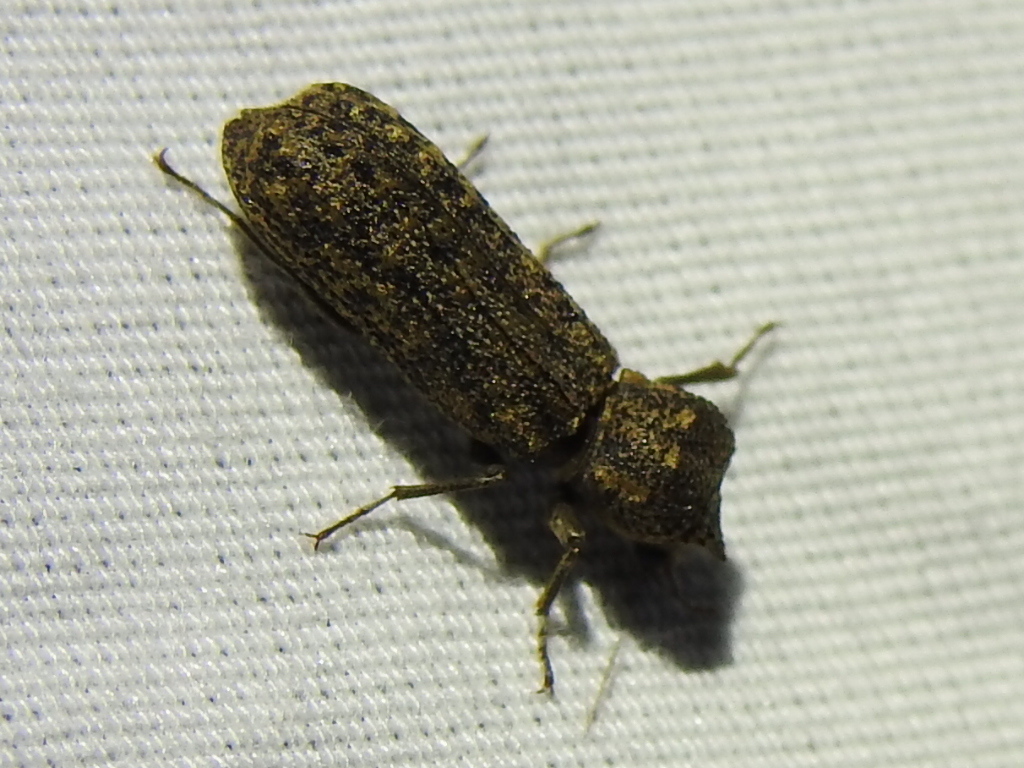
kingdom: Animalia
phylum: Arthropoda
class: Insecta
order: Coleoptera
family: Bostrichidae
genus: Lichenophanes
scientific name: Lichenophanes bicornis
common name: Two-horned powder-post beetle
